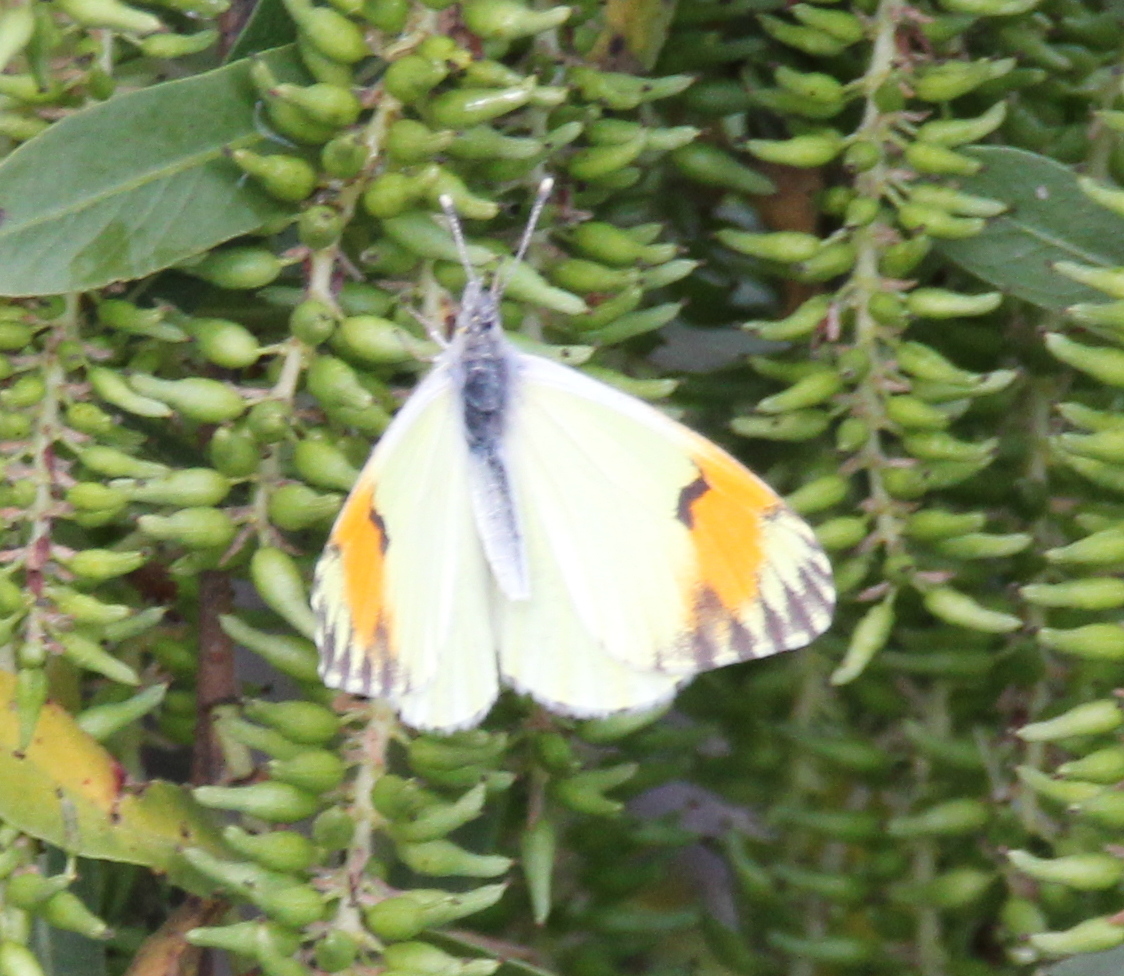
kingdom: Animalia
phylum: Arthropoda
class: Insecta
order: Lepidoptera
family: Pieridae
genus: Anthocharis
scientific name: Anthocharis sara
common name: Sara's orangetip
